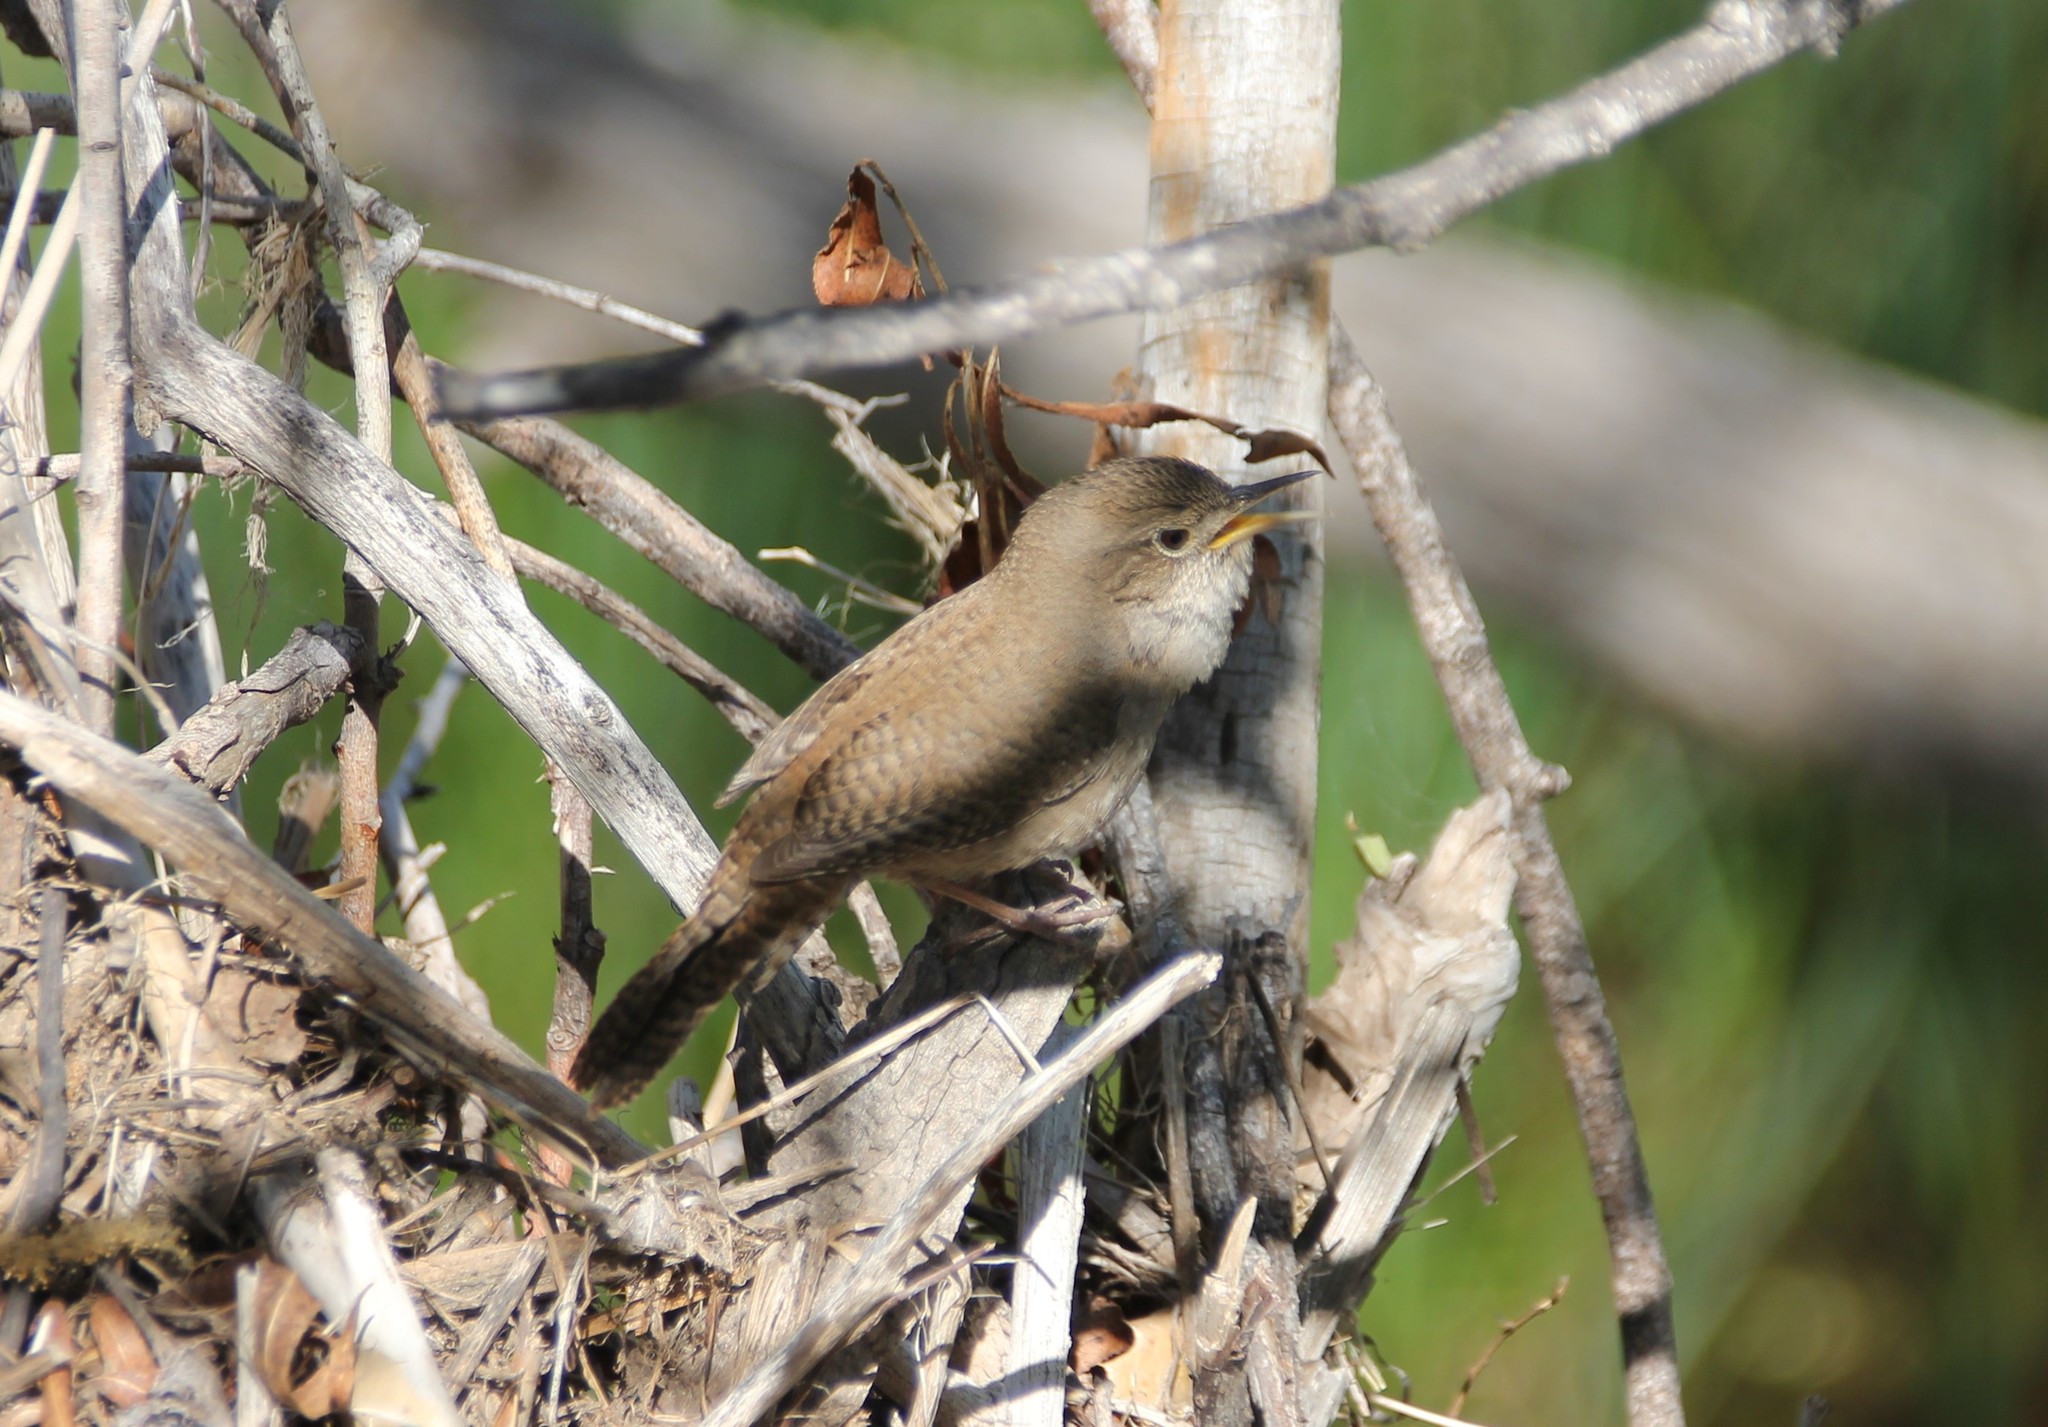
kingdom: Animalia
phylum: Chordata
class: Aves
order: Passeriformes
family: Troglodytidae
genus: Troglodytes
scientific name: Troglodytes aedon
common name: House wren
